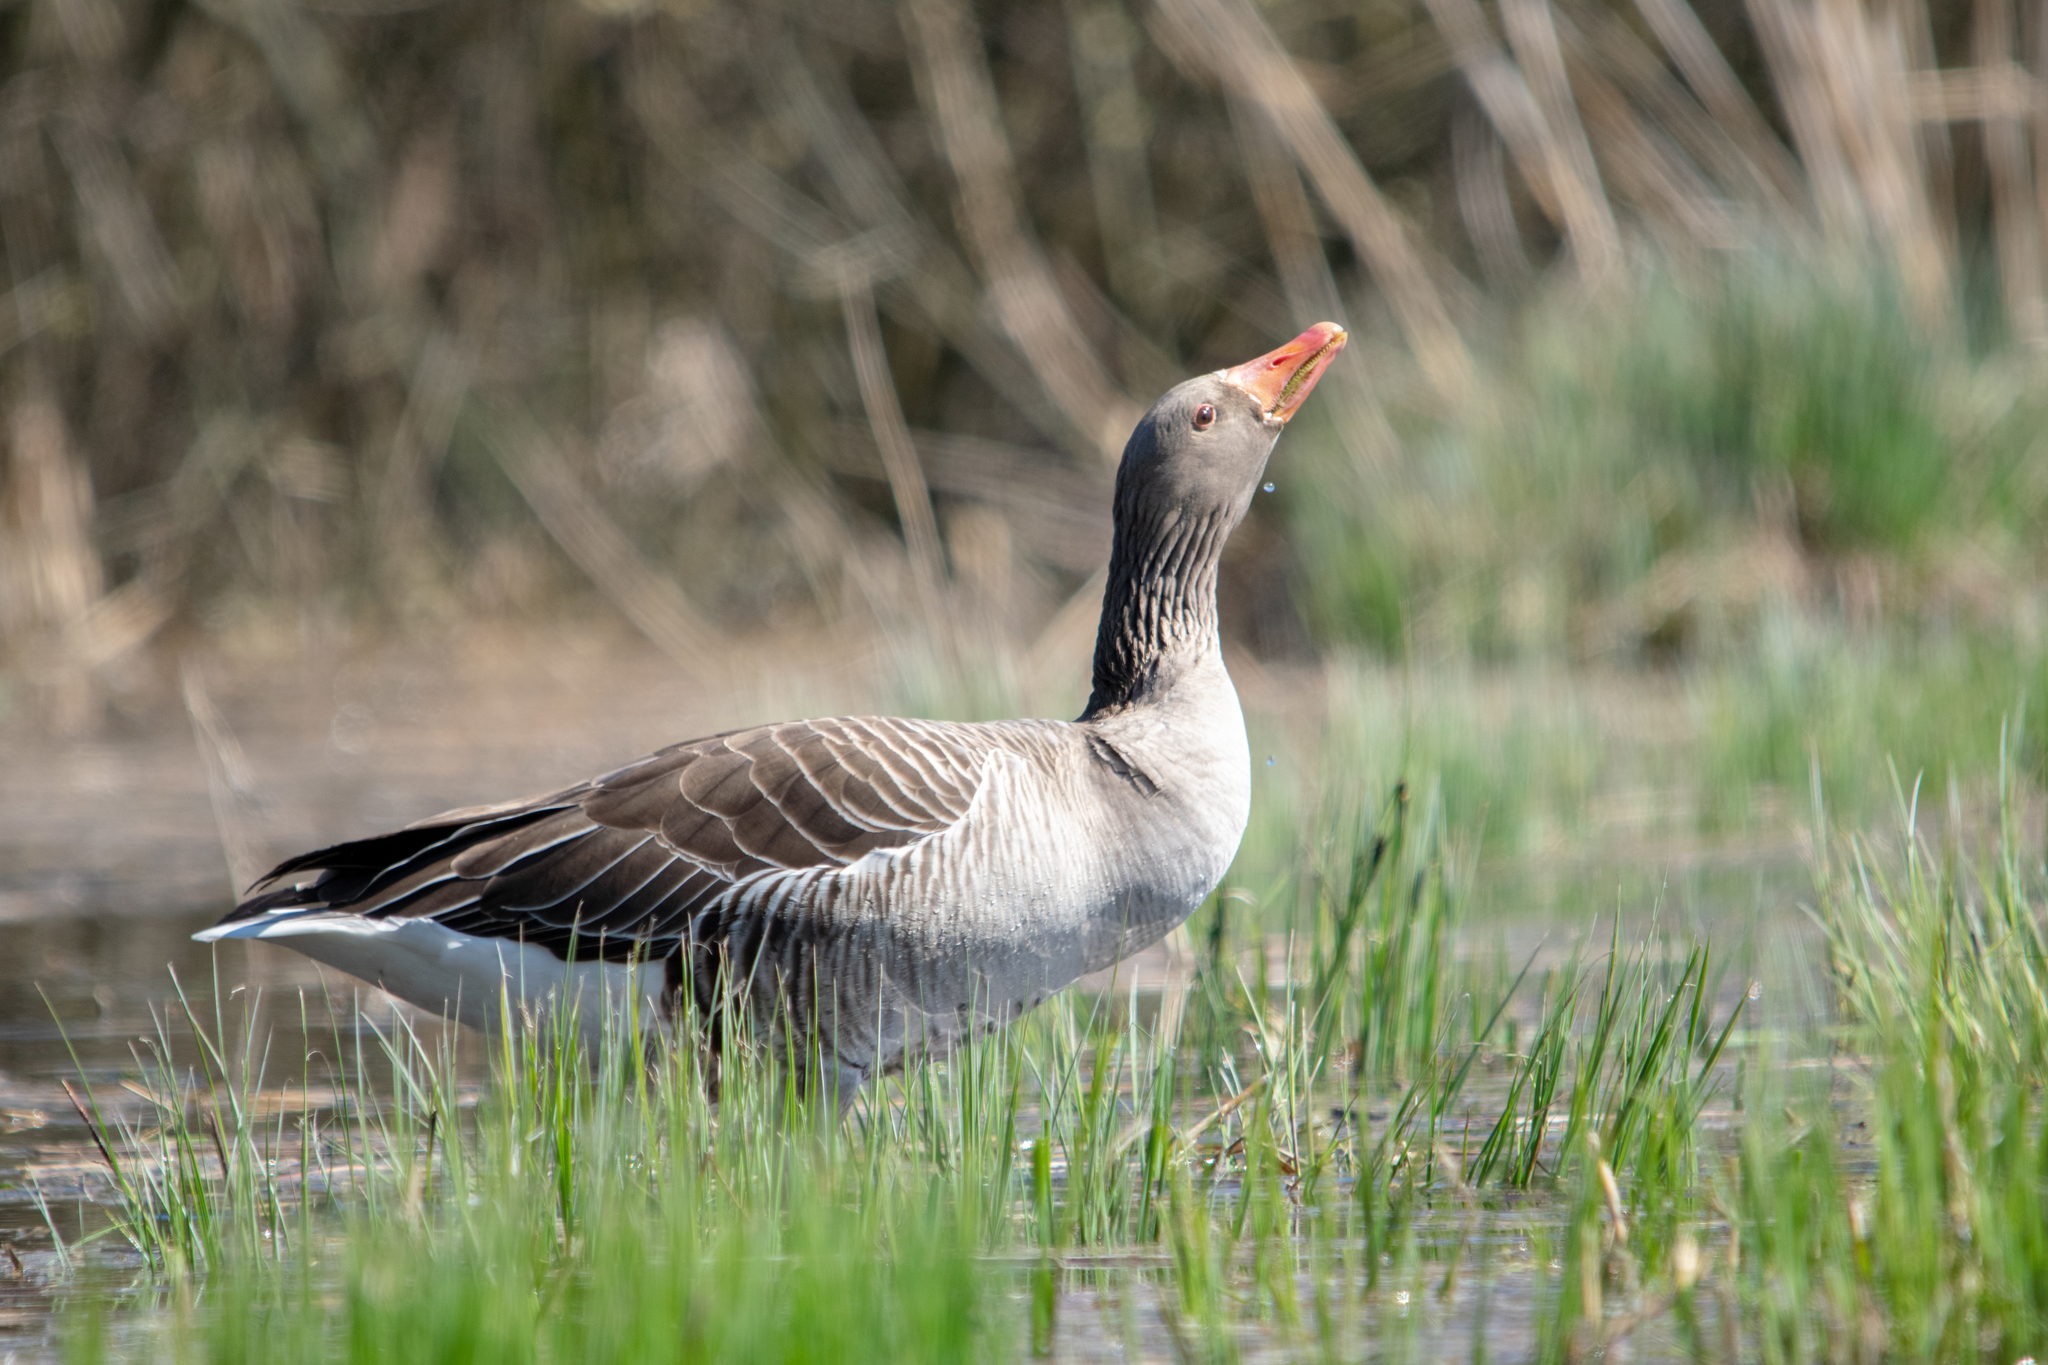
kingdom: Animalia
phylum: Chordata
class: Aves
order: Anseriformes
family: Anatidae
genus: Anser
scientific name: Anser anser
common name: Greylag goose
